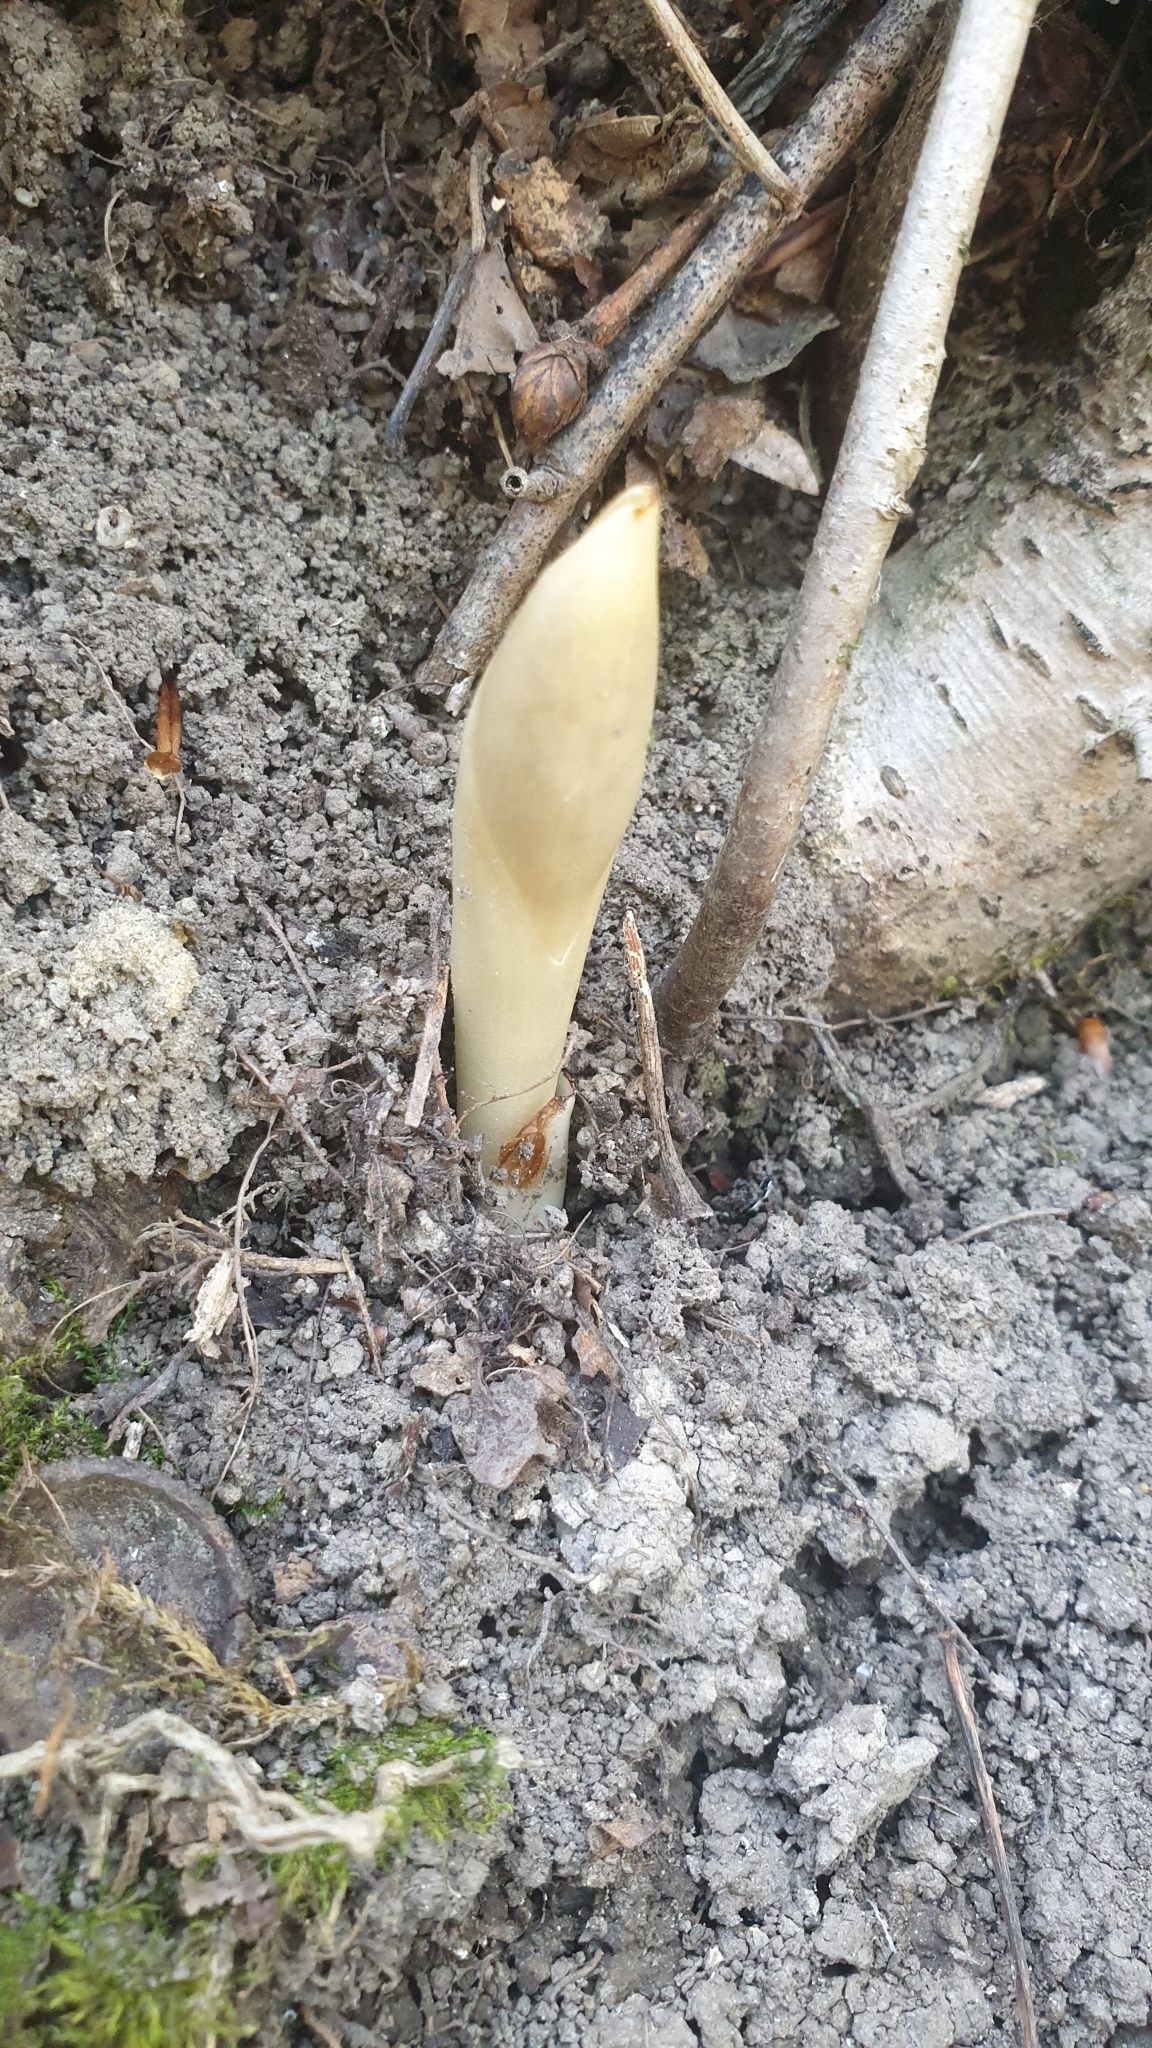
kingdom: Plantae
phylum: Tracheophyta
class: Liliopsida
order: Asparagales
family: Orchidaceae
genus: Neottia
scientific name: Neottia nidus-avis
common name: Bird's-nest orchid
